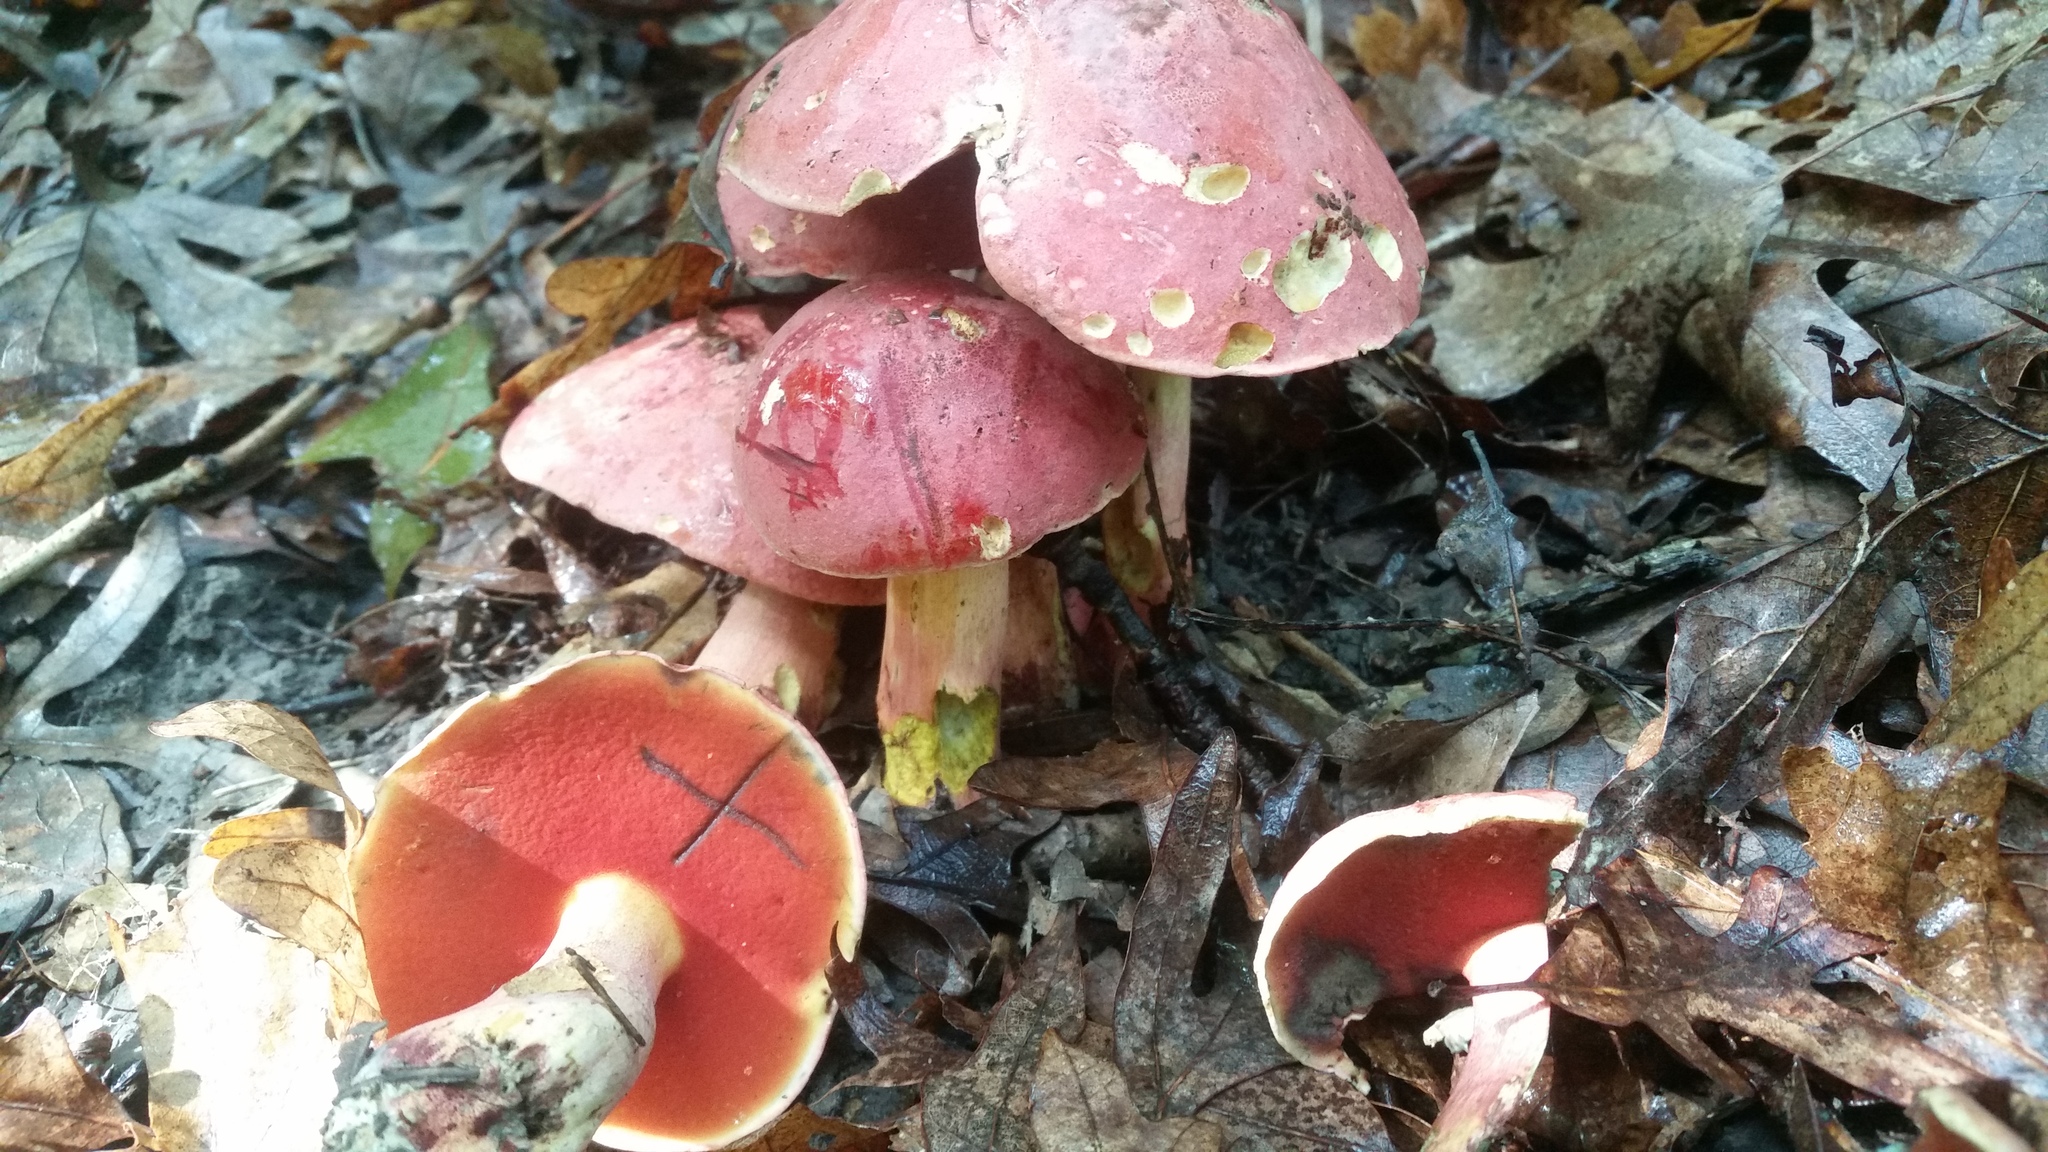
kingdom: Fungi
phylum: Basidiomycota
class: Agaricomycetes
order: Boletales
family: Boletaceae
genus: Boletus
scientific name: Boletus rubroflammeus
